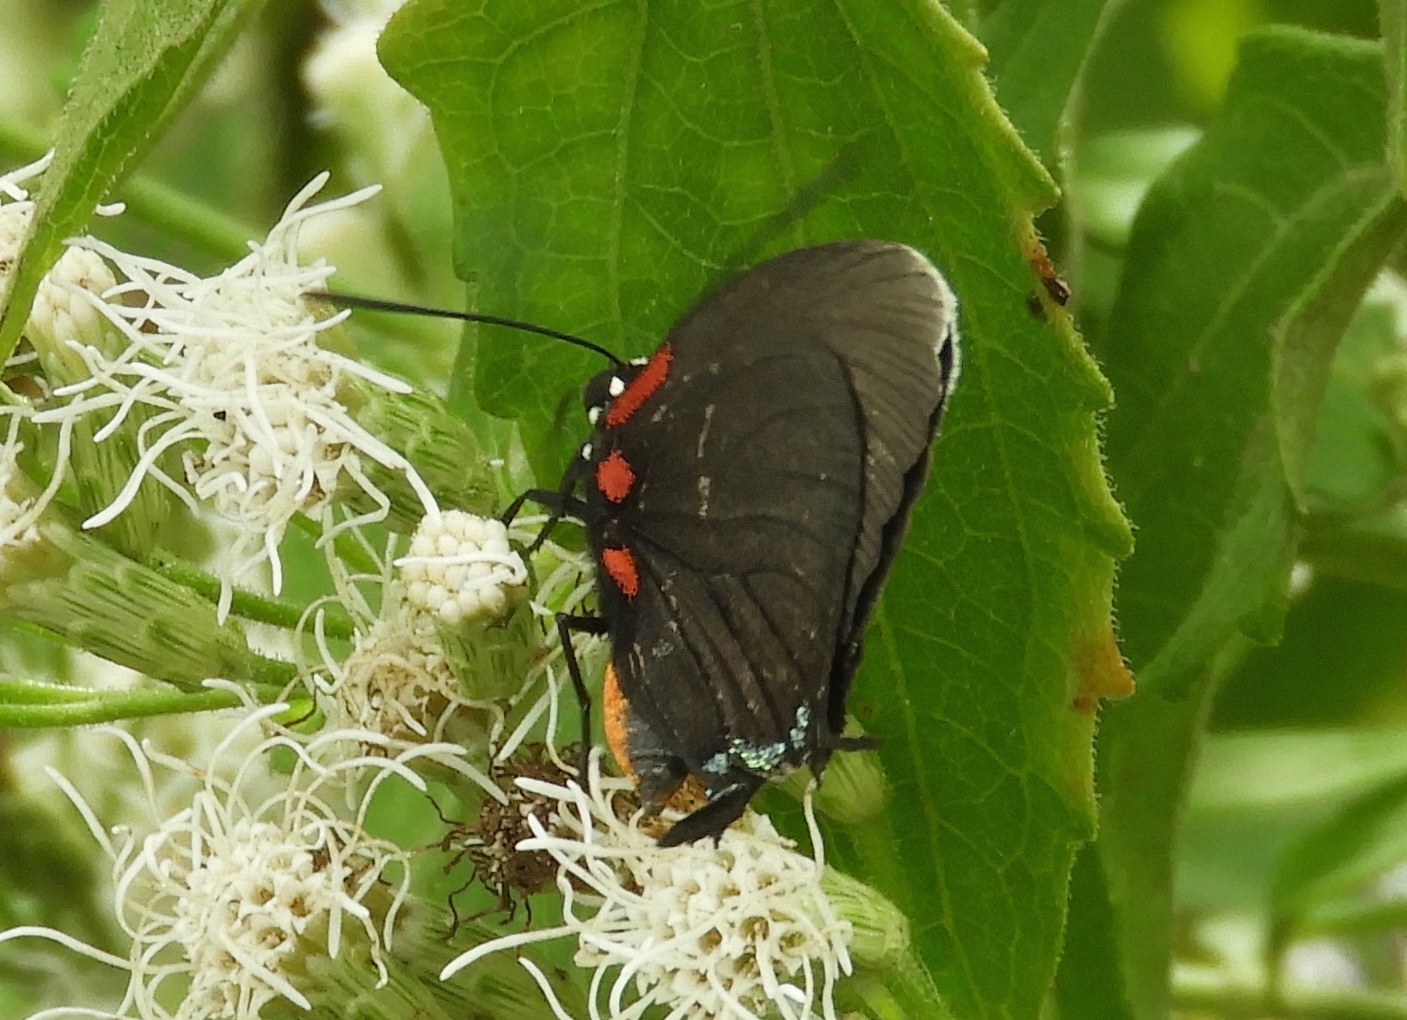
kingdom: Animalia
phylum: Arthropoda
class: Insecta
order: Lepidoptera
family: Lycaenidae
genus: Atlides
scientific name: Atlides
